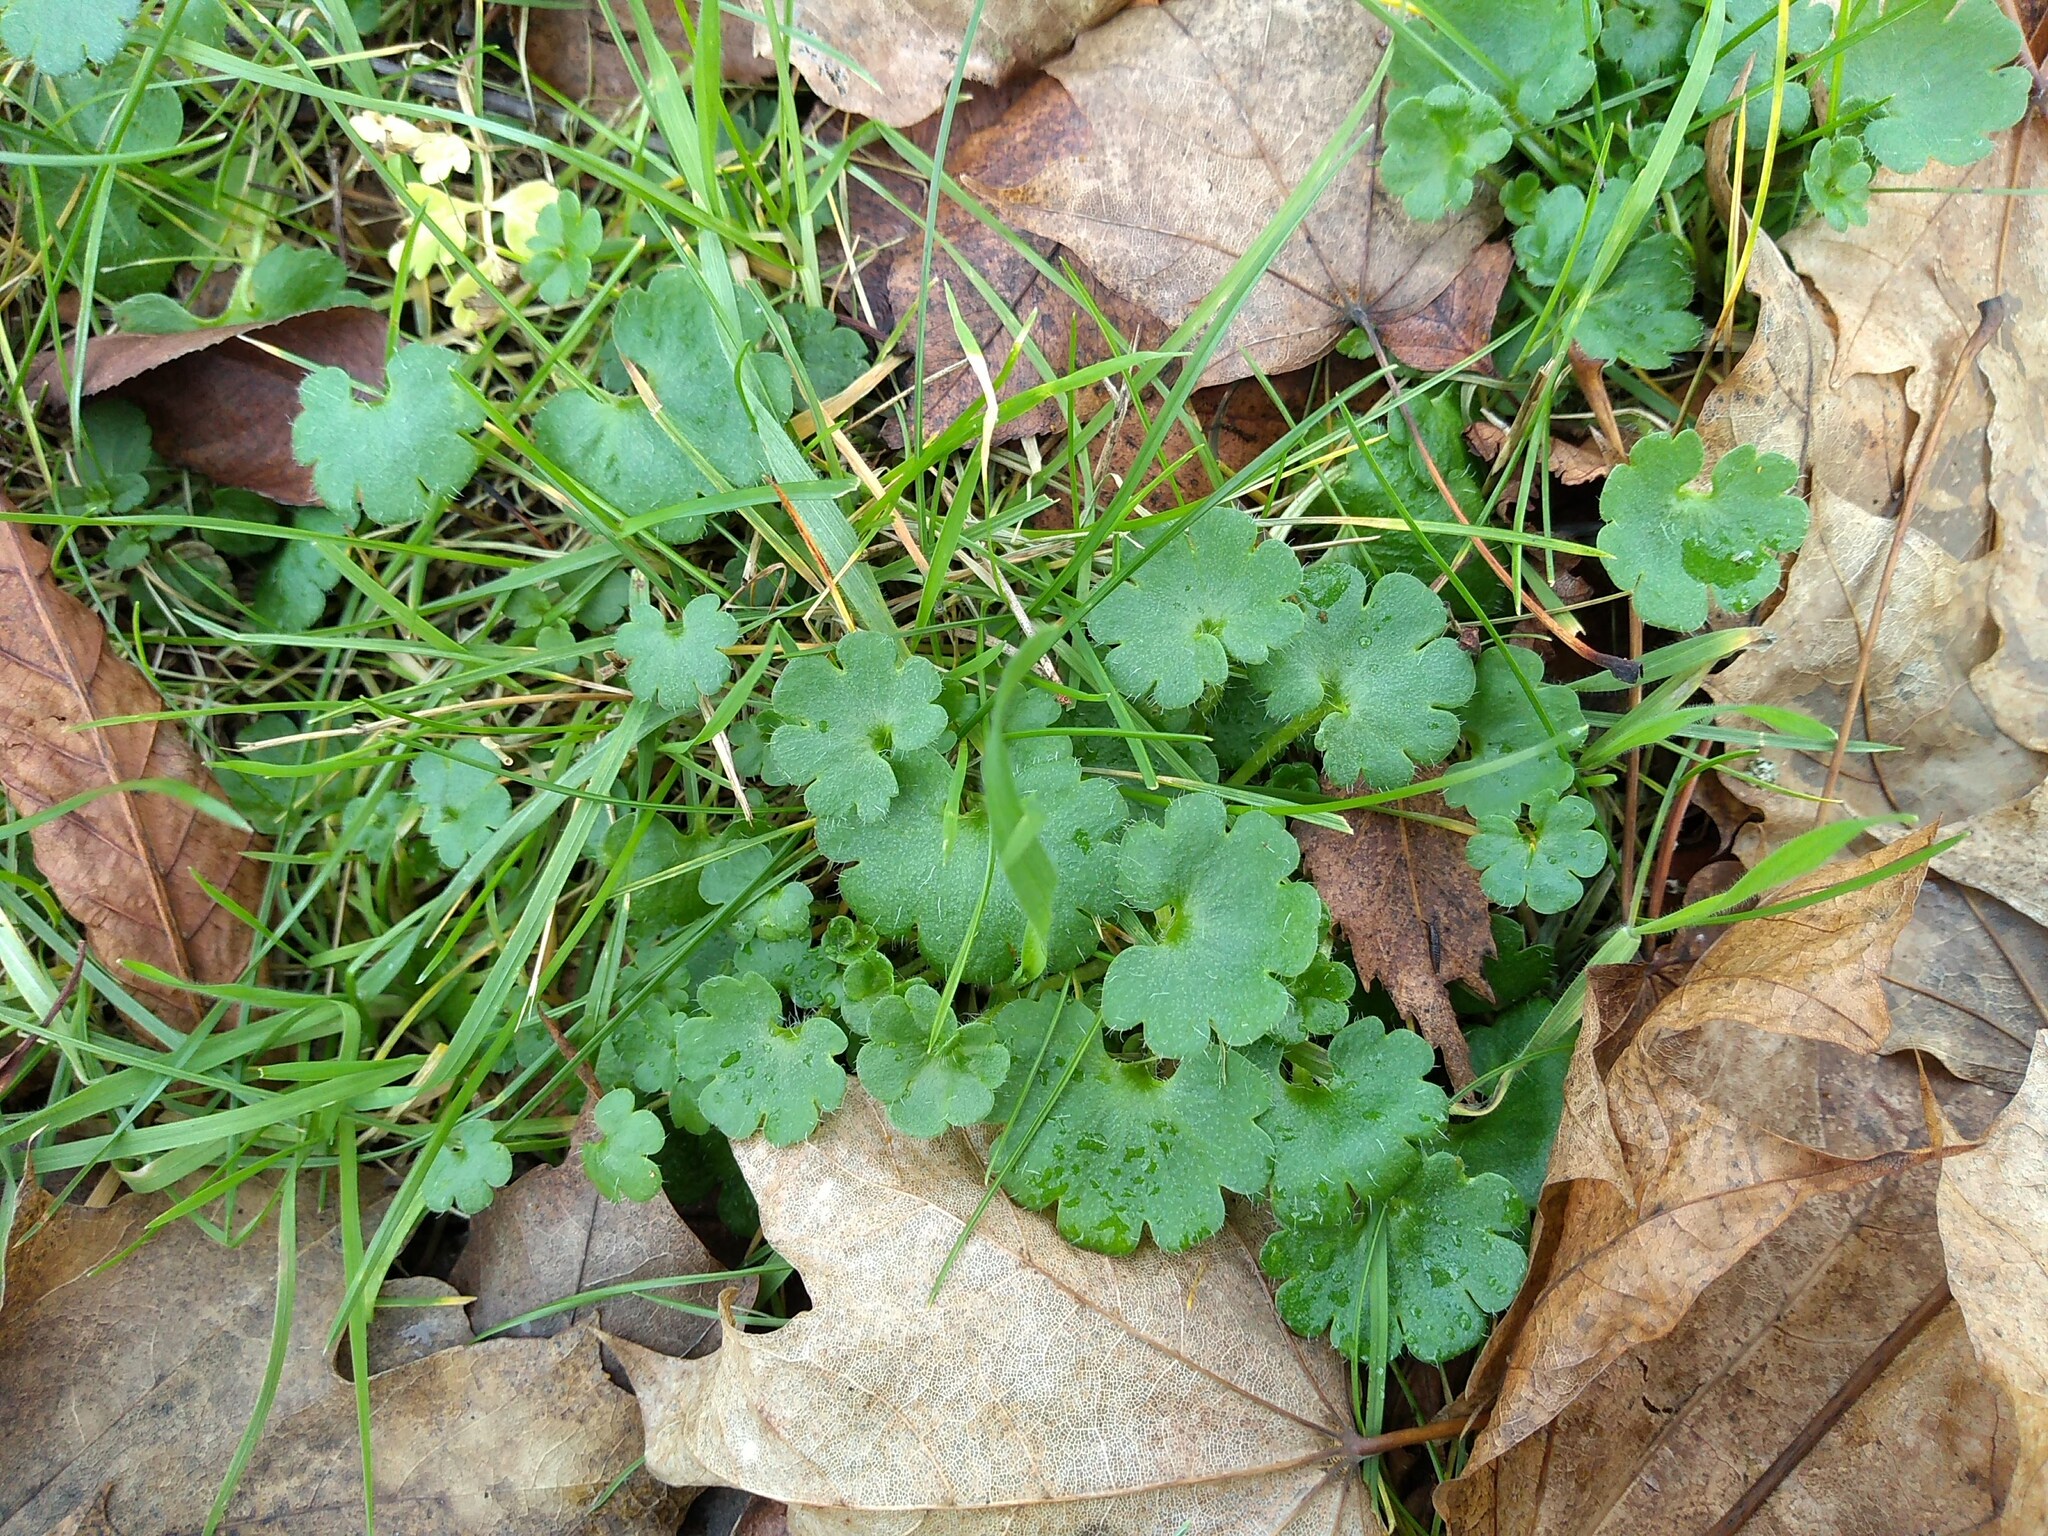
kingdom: Plantae
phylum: Tracheophyta
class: Magnoliopsida
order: Saxifragales
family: Saxifragaceae
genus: Saxifraga
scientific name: Saxifraga granulata
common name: Meadow saxifrage
